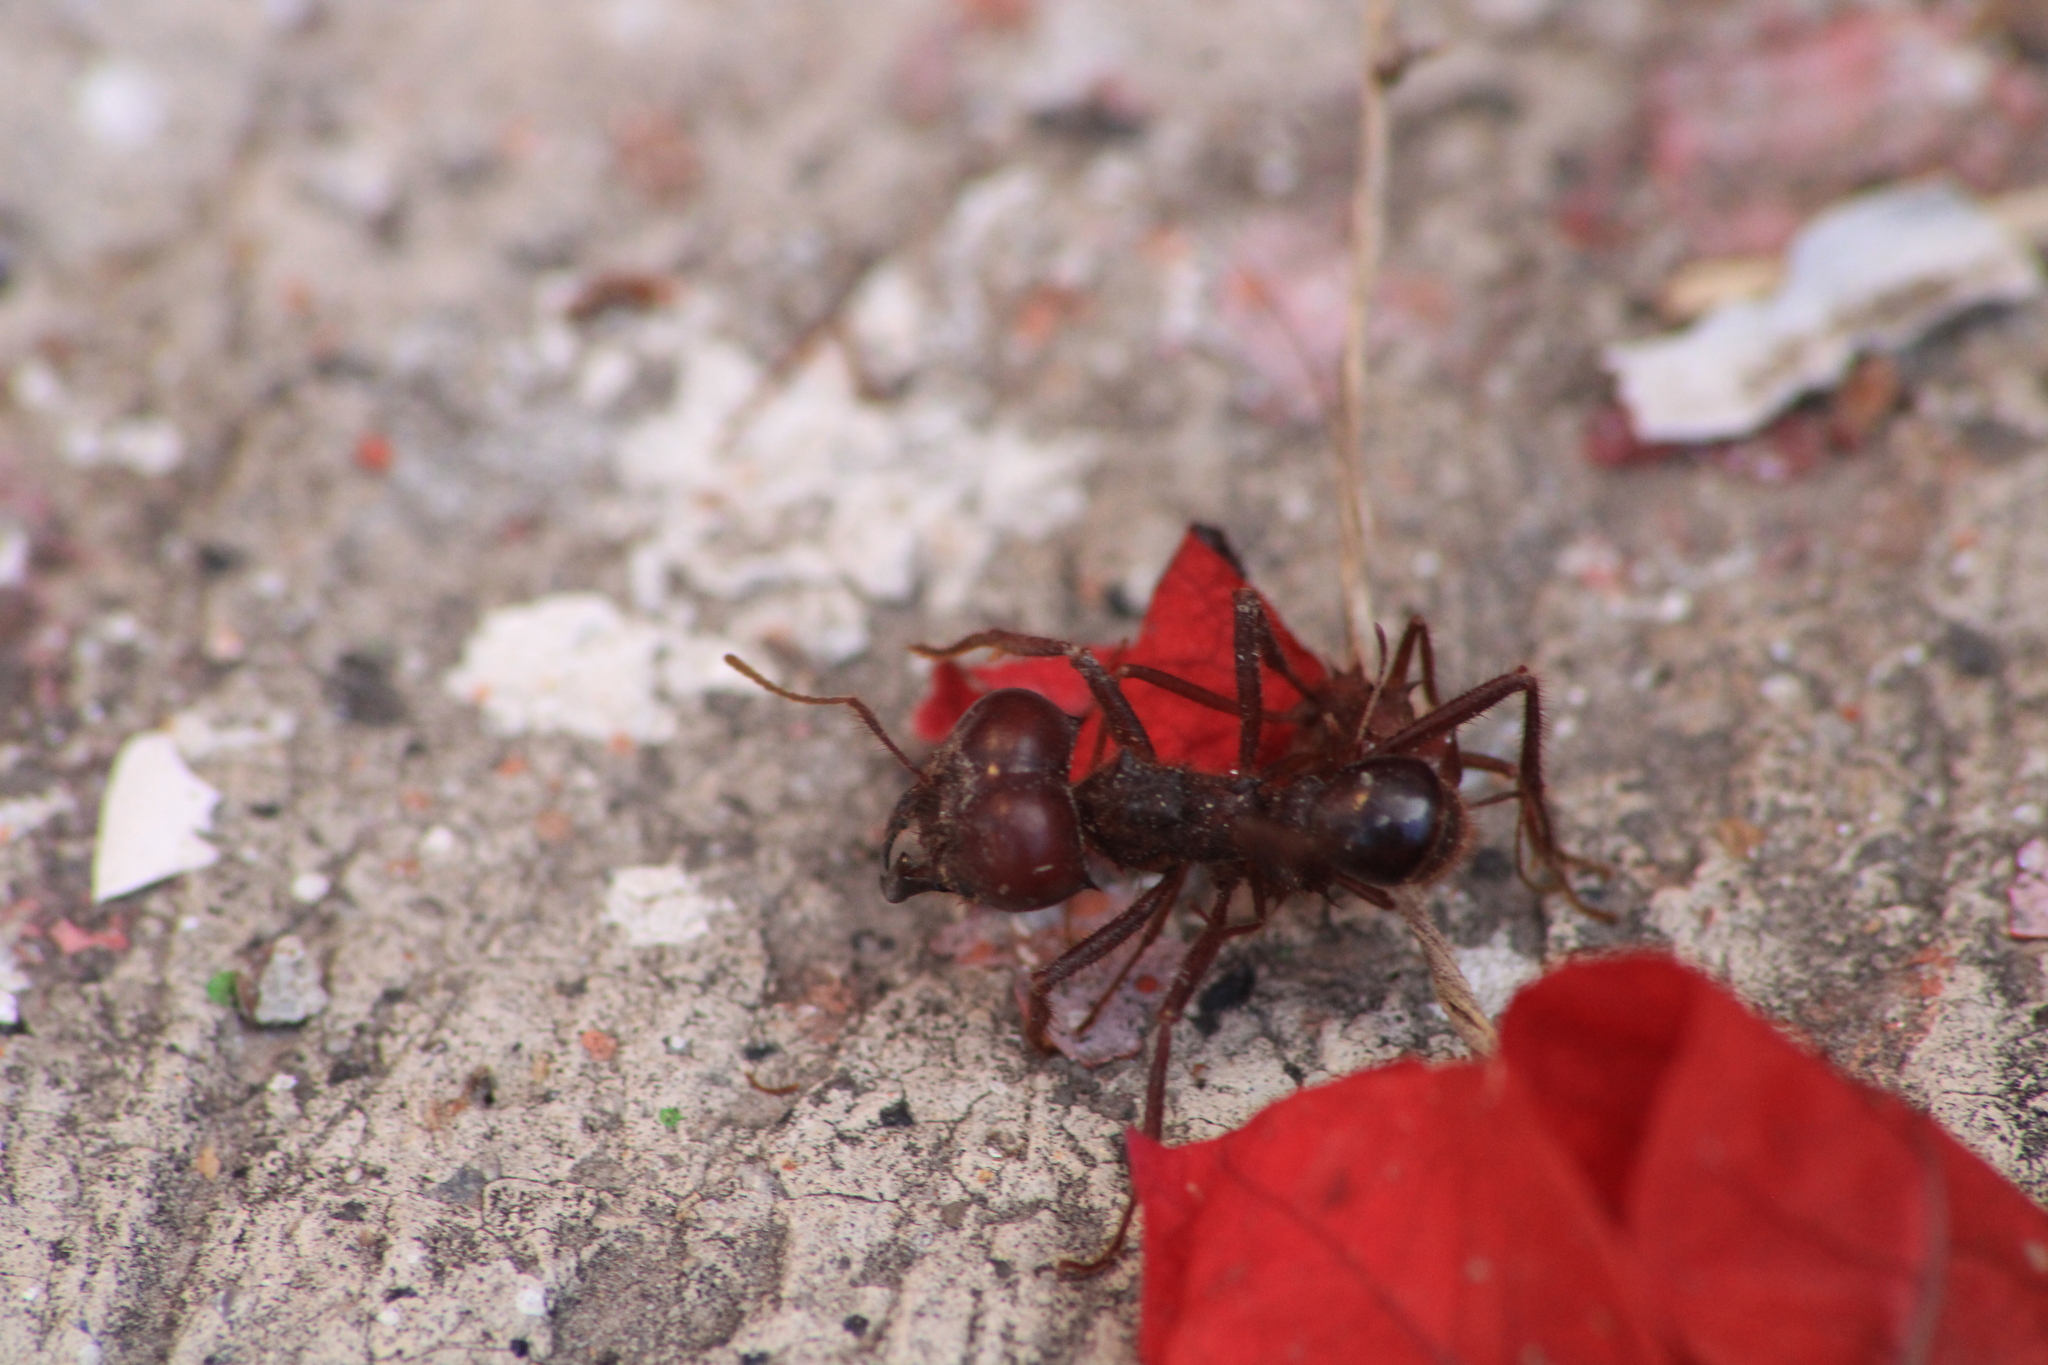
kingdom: Animalia
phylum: Arthropoda
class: Insecta
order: Hymenoptera
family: Formicidae
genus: Atta
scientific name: Atta mexicana
